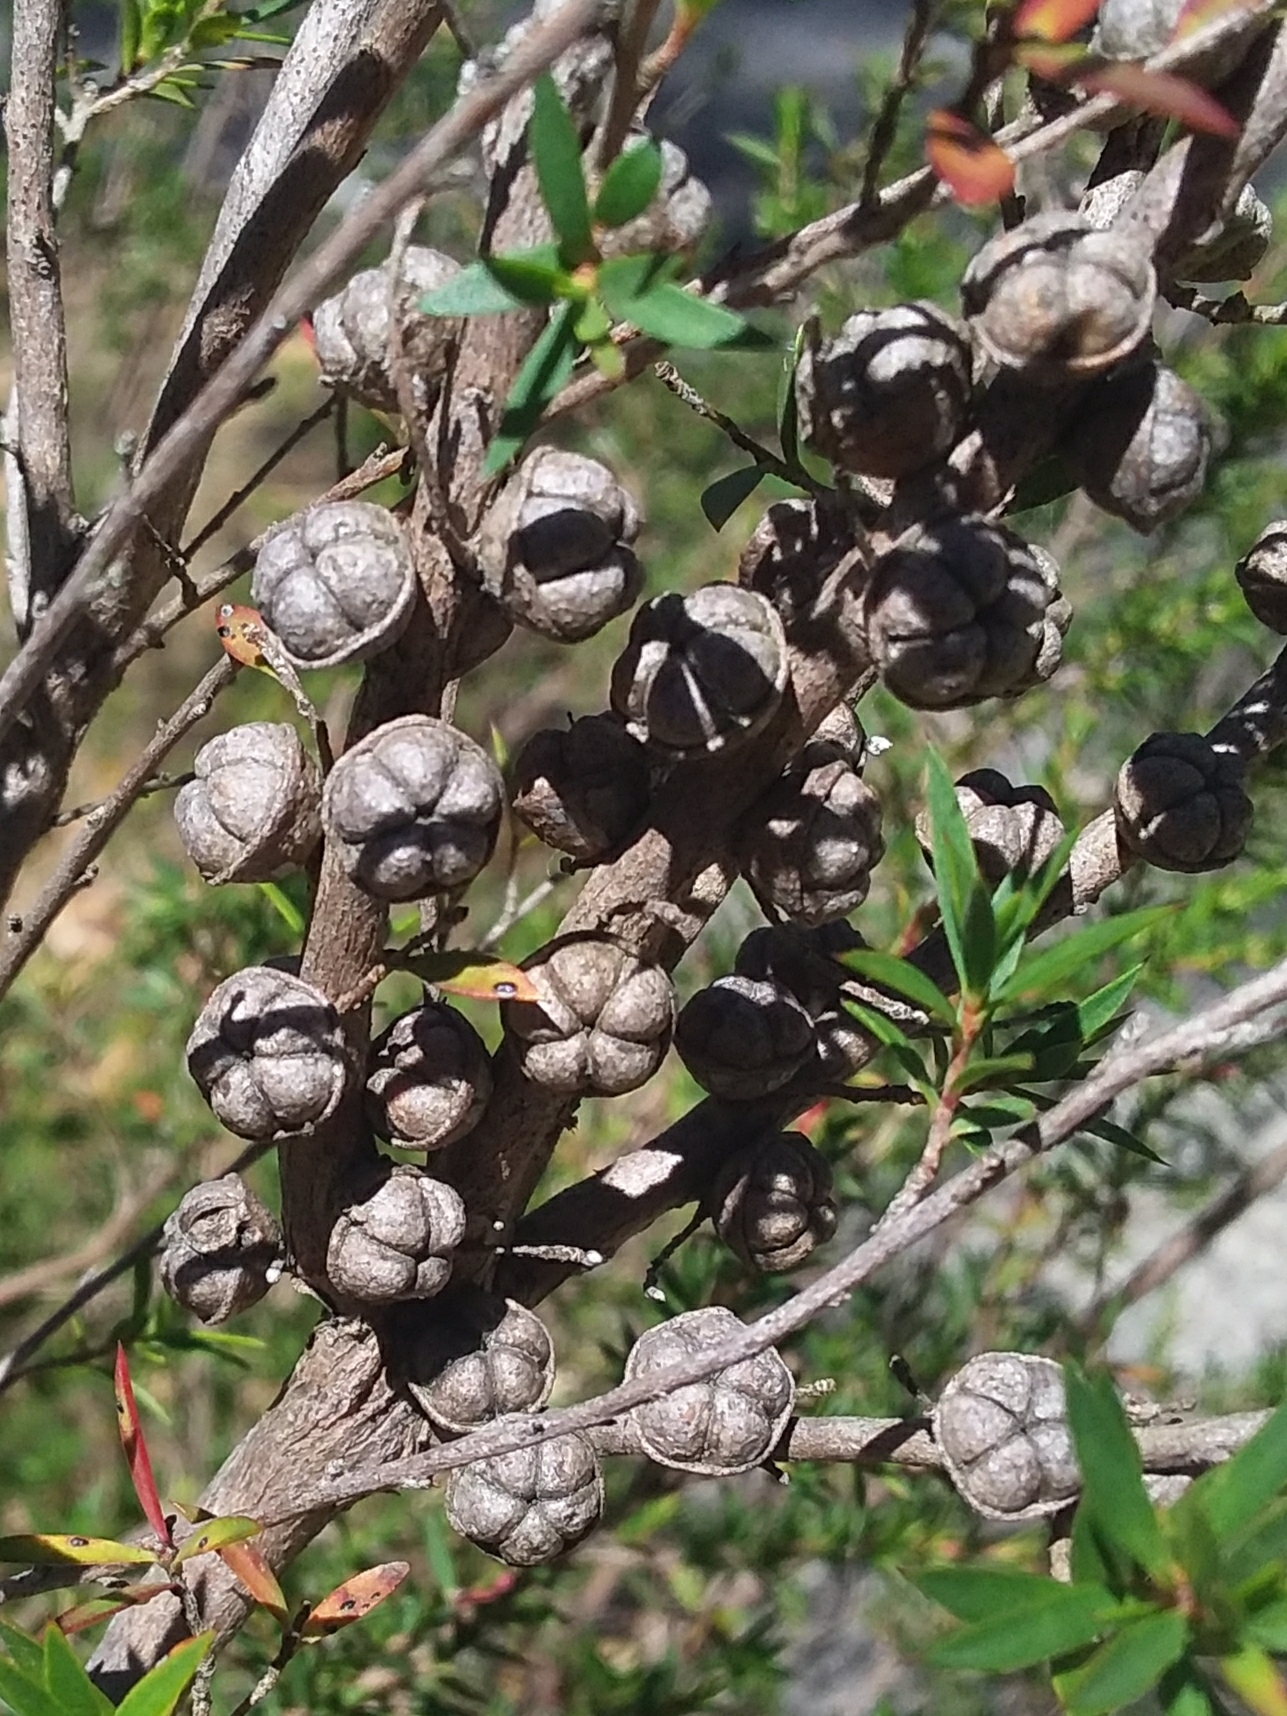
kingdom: Plantae
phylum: Tracheophyta
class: Magnoliopsida
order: Myrtales
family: Myrtaceae
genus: Leptospermum
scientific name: Leptospermum continentale
